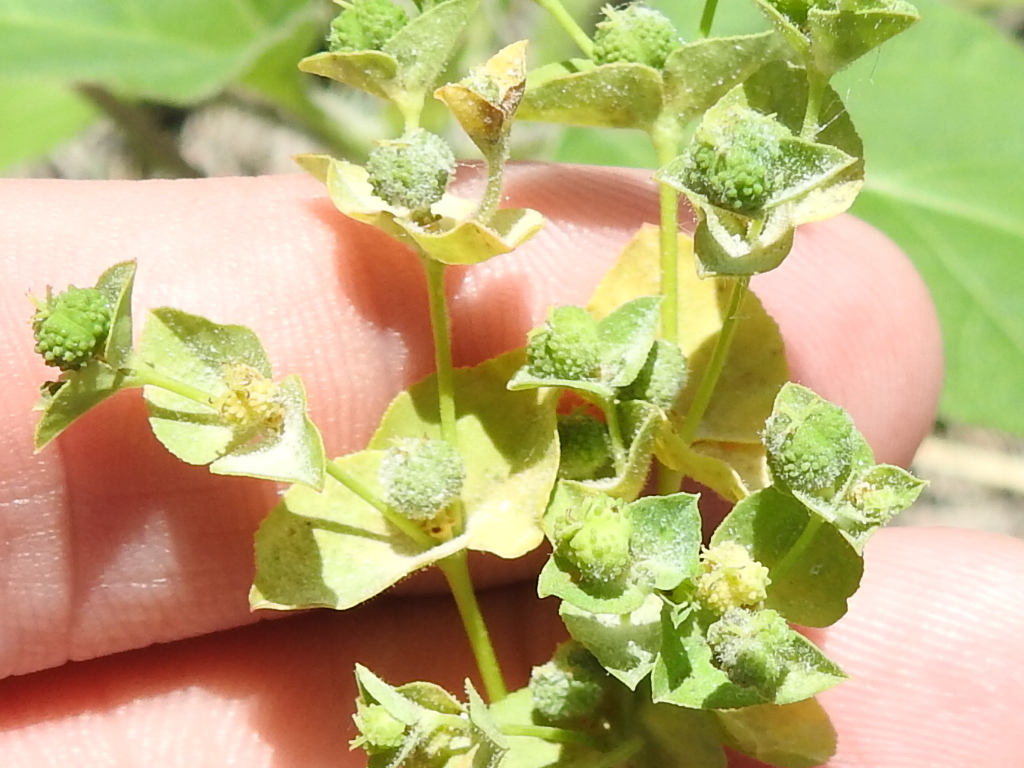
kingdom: Plantae
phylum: Tracheophyta
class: Magnoliopsida
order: Malpighiales
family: Euphorbiaceae
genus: Euphorbia
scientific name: Euphorbia spathulata
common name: Blunt spurge
